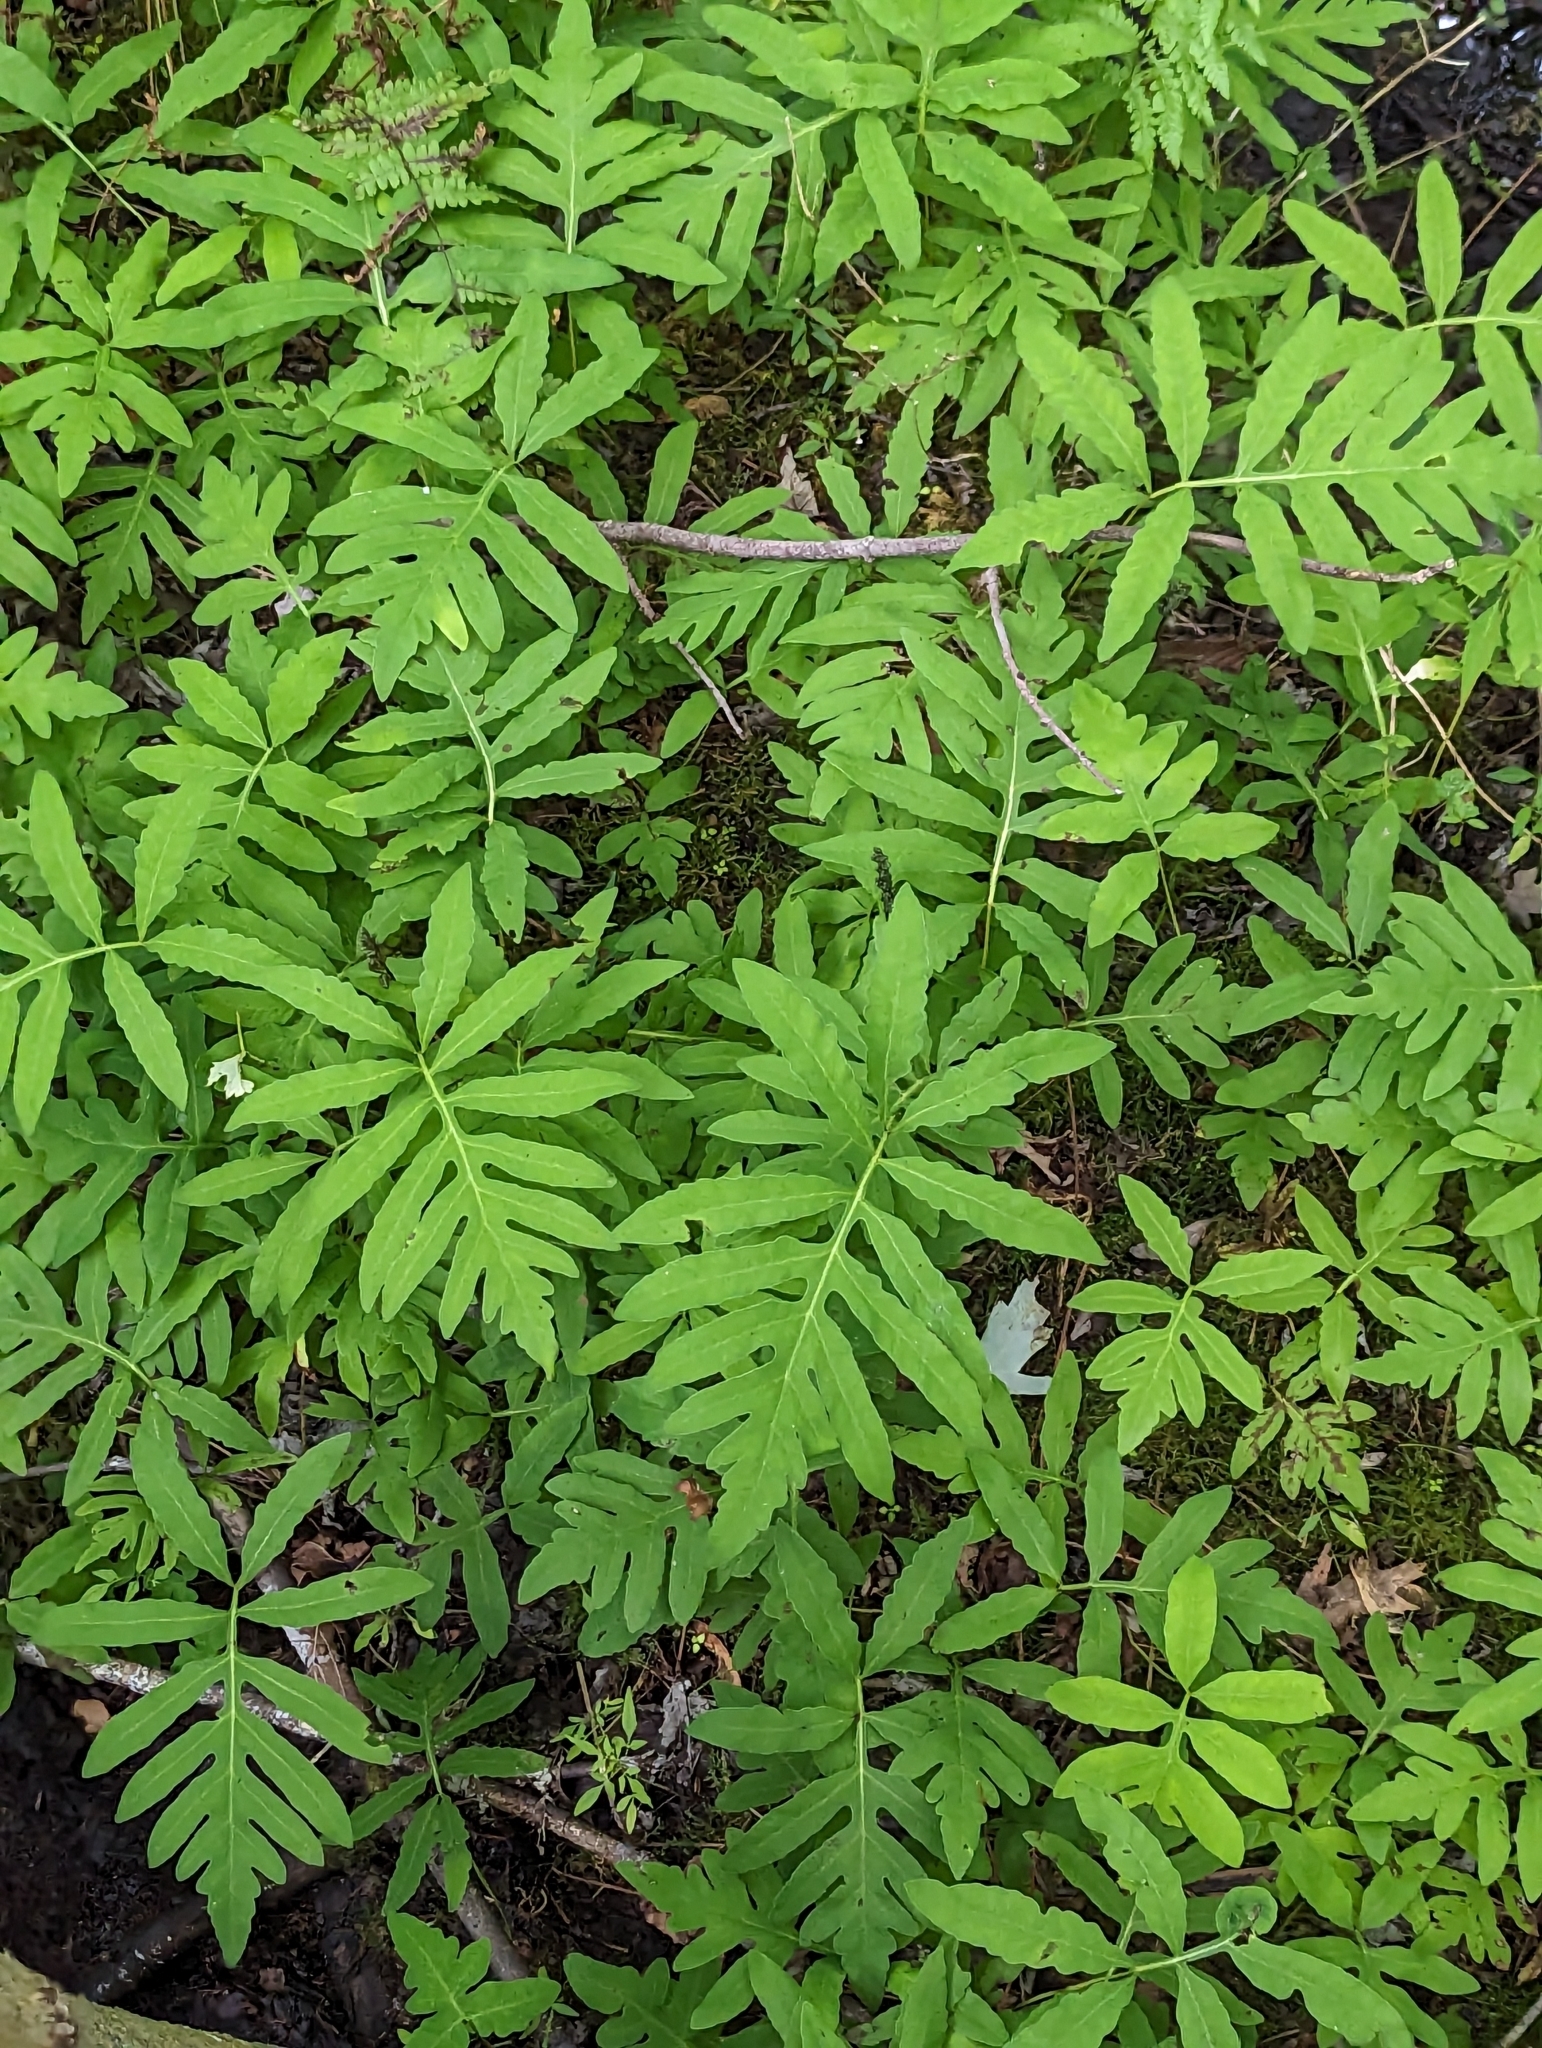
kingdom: Plantae
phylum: Tracheophyta
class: Polypodiopsida
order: Polypodiales
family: Onocleaceae
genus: Onoclea
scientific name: Onoclea sensibilis
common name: Sensitive fern
